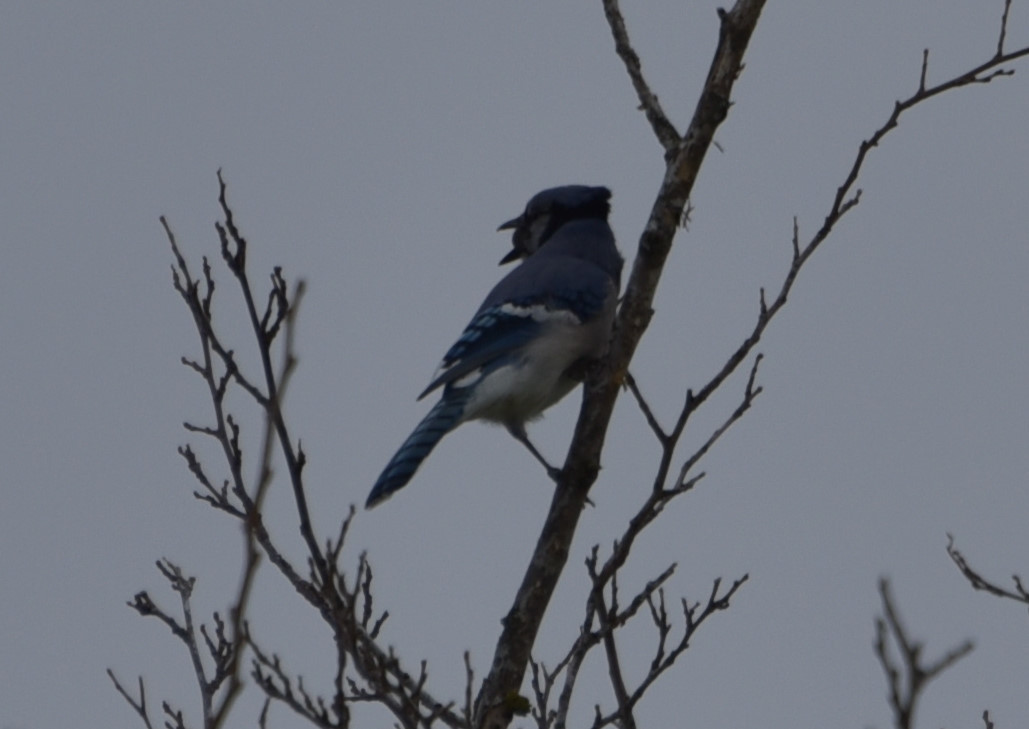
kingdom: Animalia
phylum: Chordata
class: Aves
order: Passeriformes
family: Corvidae
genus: Cyanocitta
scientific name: Cyanocitta cristata
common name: Blue jay
